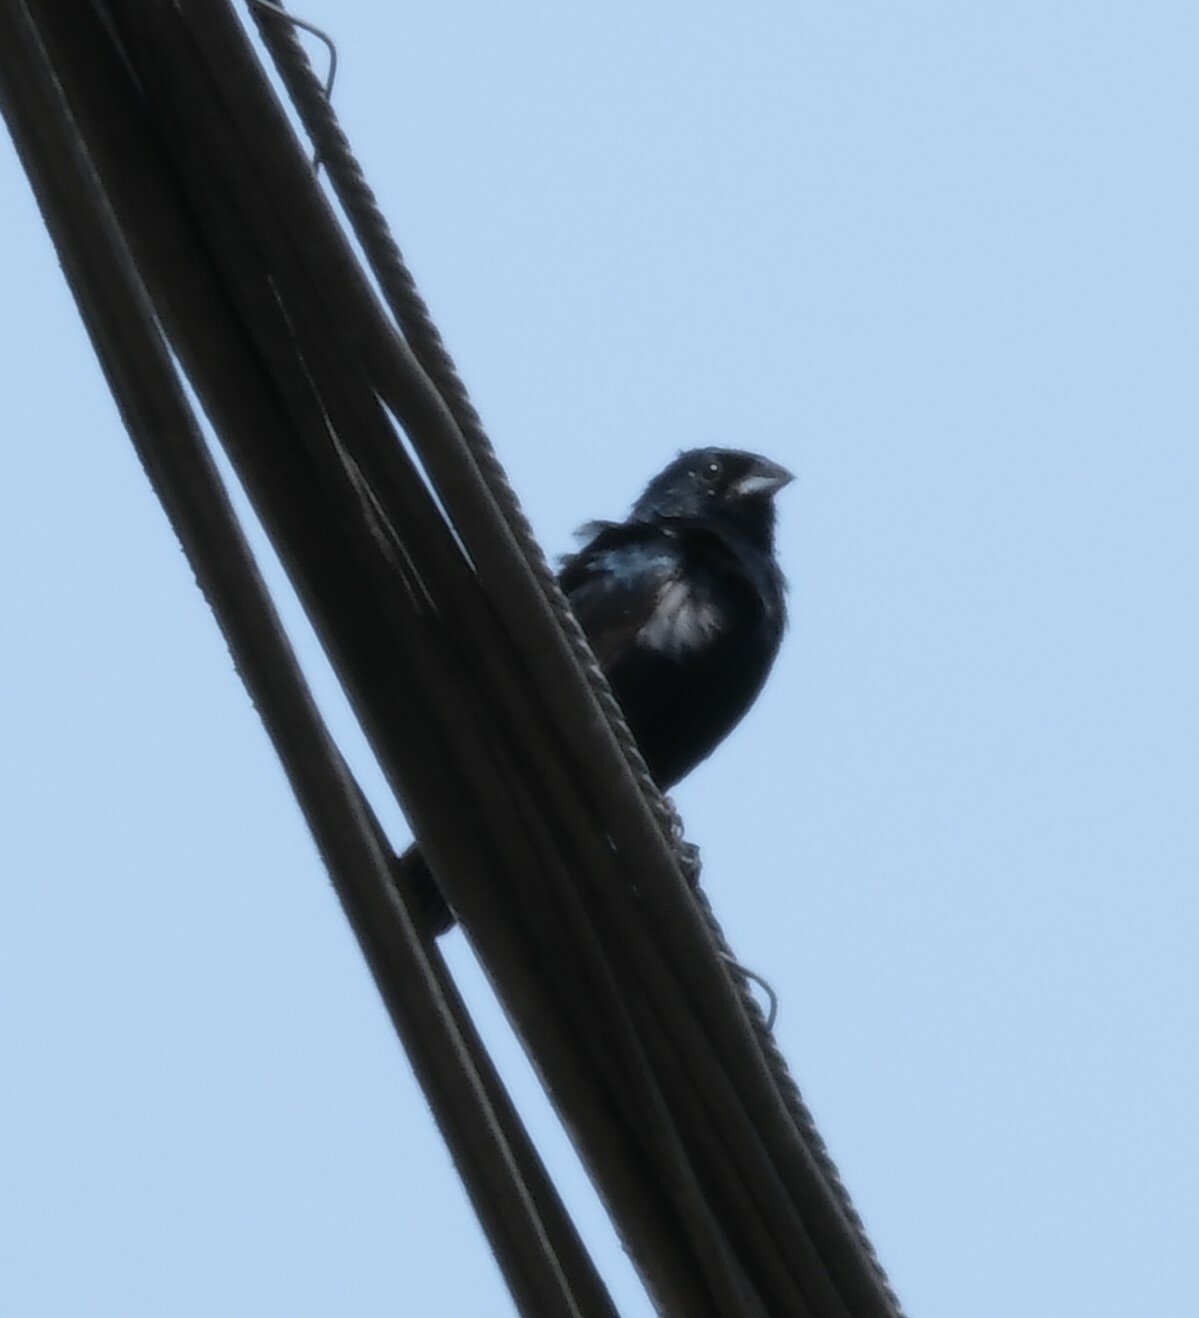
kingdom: Animalia
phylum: Chordata
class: Aves
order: Passeriformes
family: Thraupidae
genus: Volatinia
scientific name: Volatinia jacarina
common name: Blue-black grassquit
